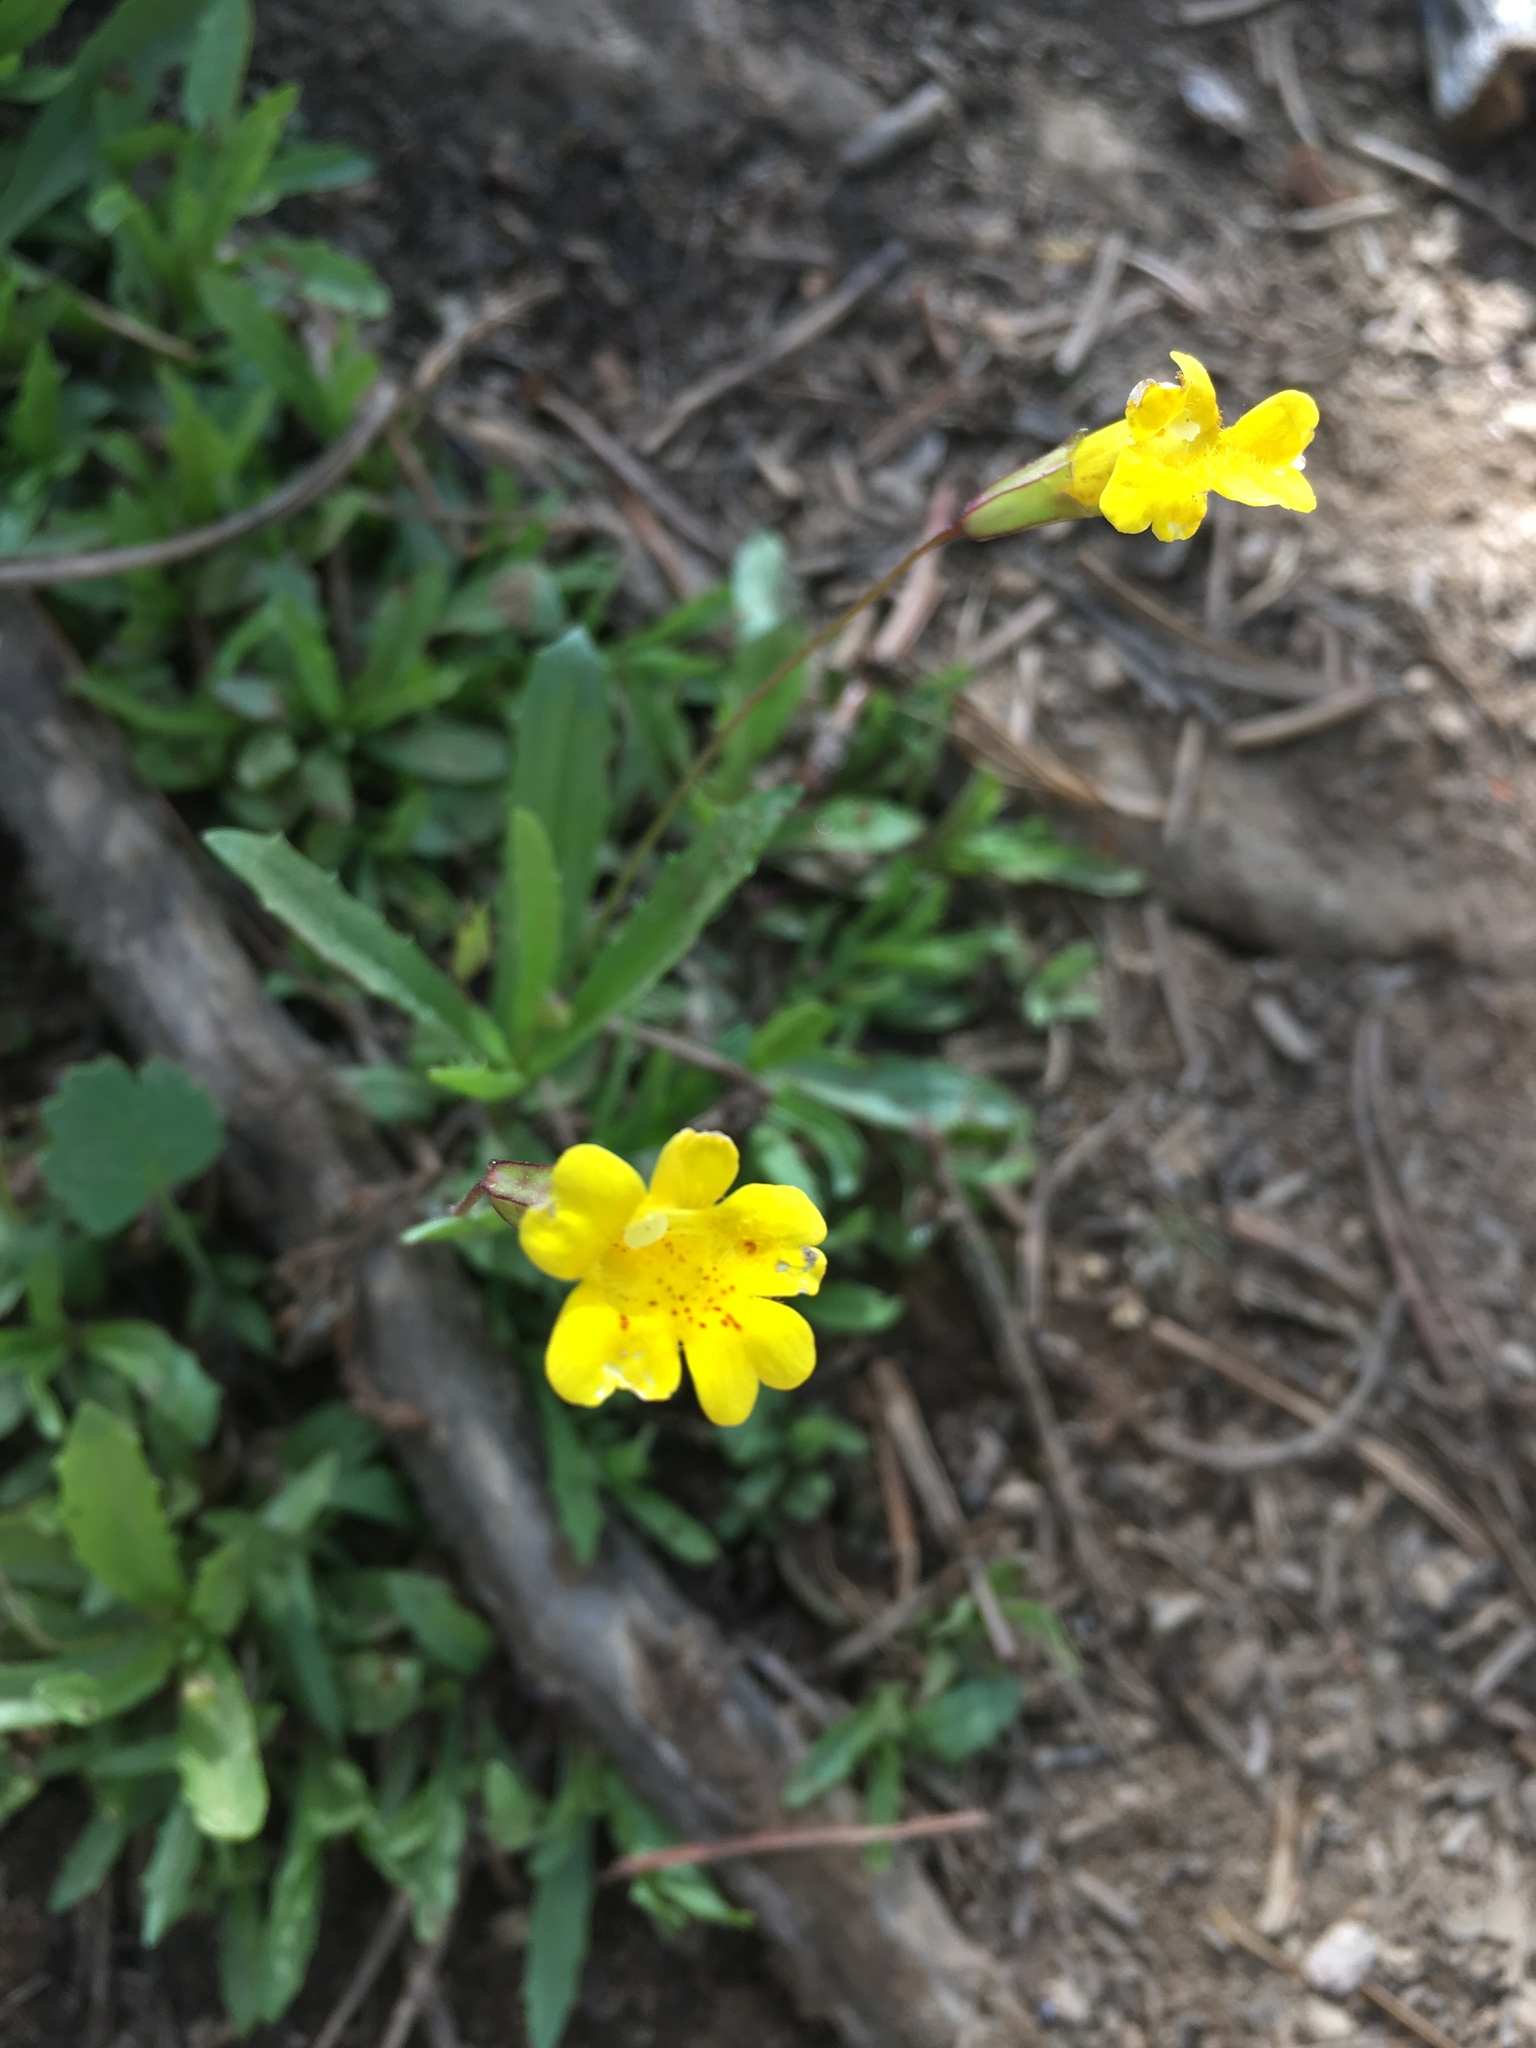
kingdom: Plantae
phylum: Tracheophyta
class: Magnoliopsida
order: Lamiales
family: Phrymaceae
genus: Erythranthe
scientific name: Erythranthe linearifolia
